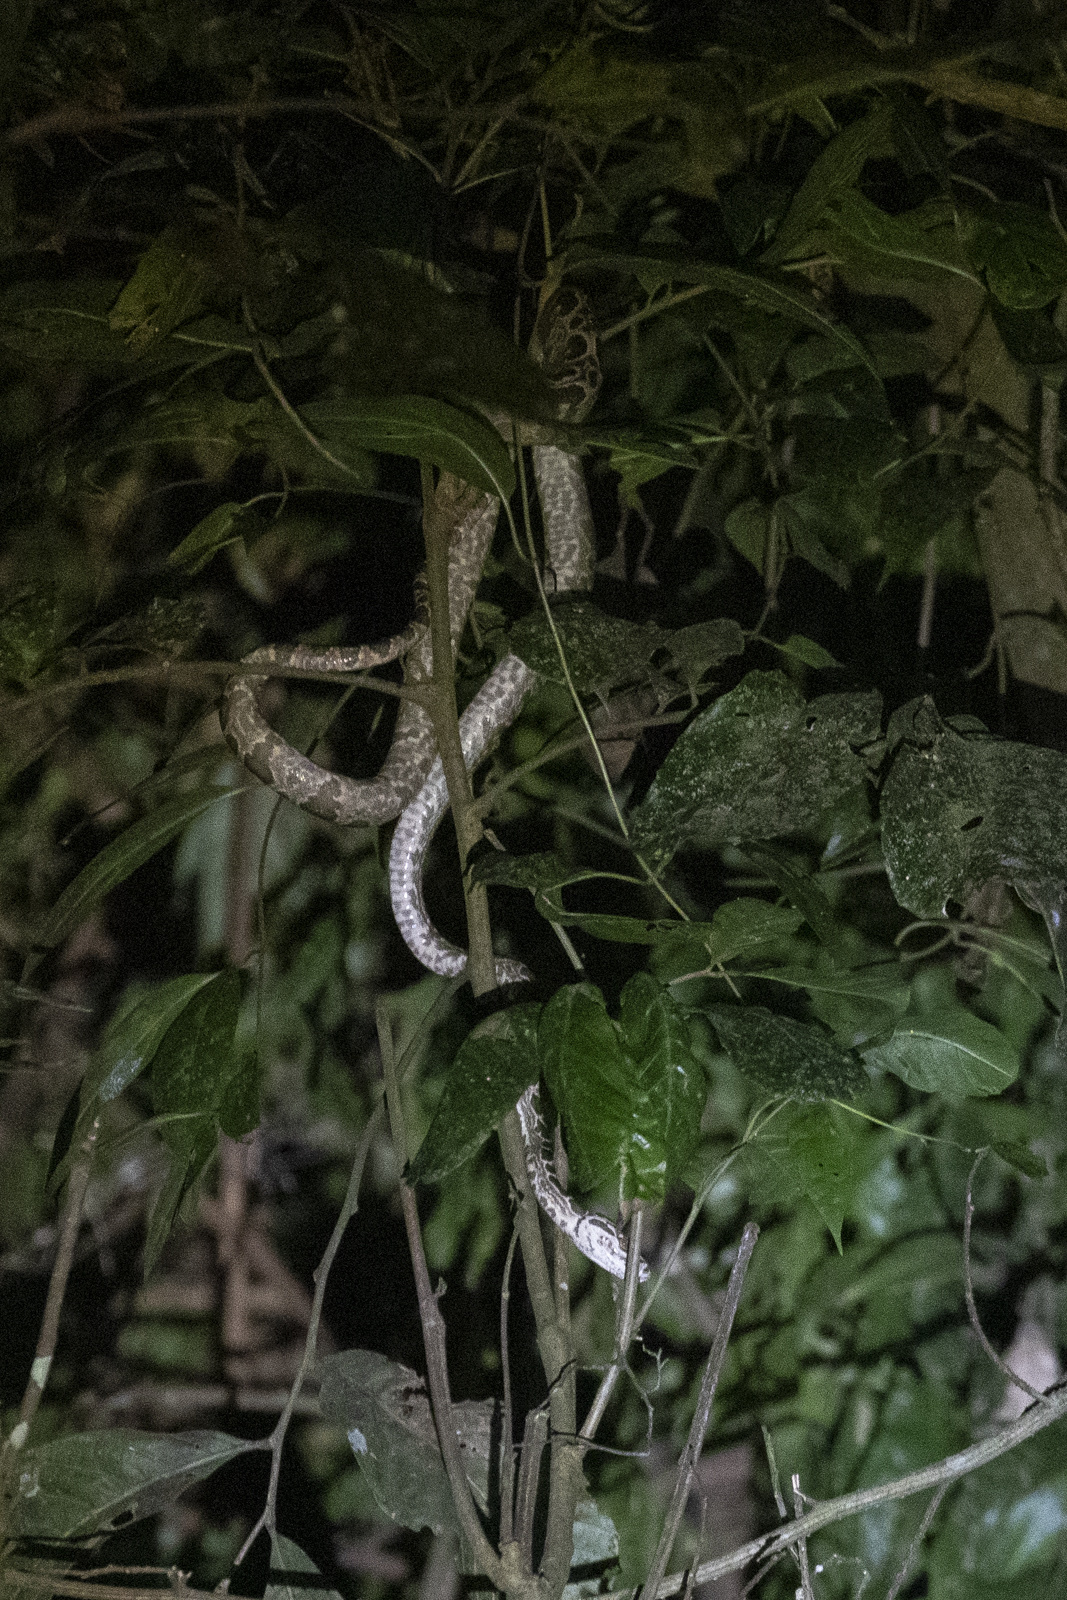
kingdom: Animalia
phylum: Chordata
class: Squamata
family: Boidae
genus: Corallus
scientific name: Corallus hortulana
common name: Garden tree boa
